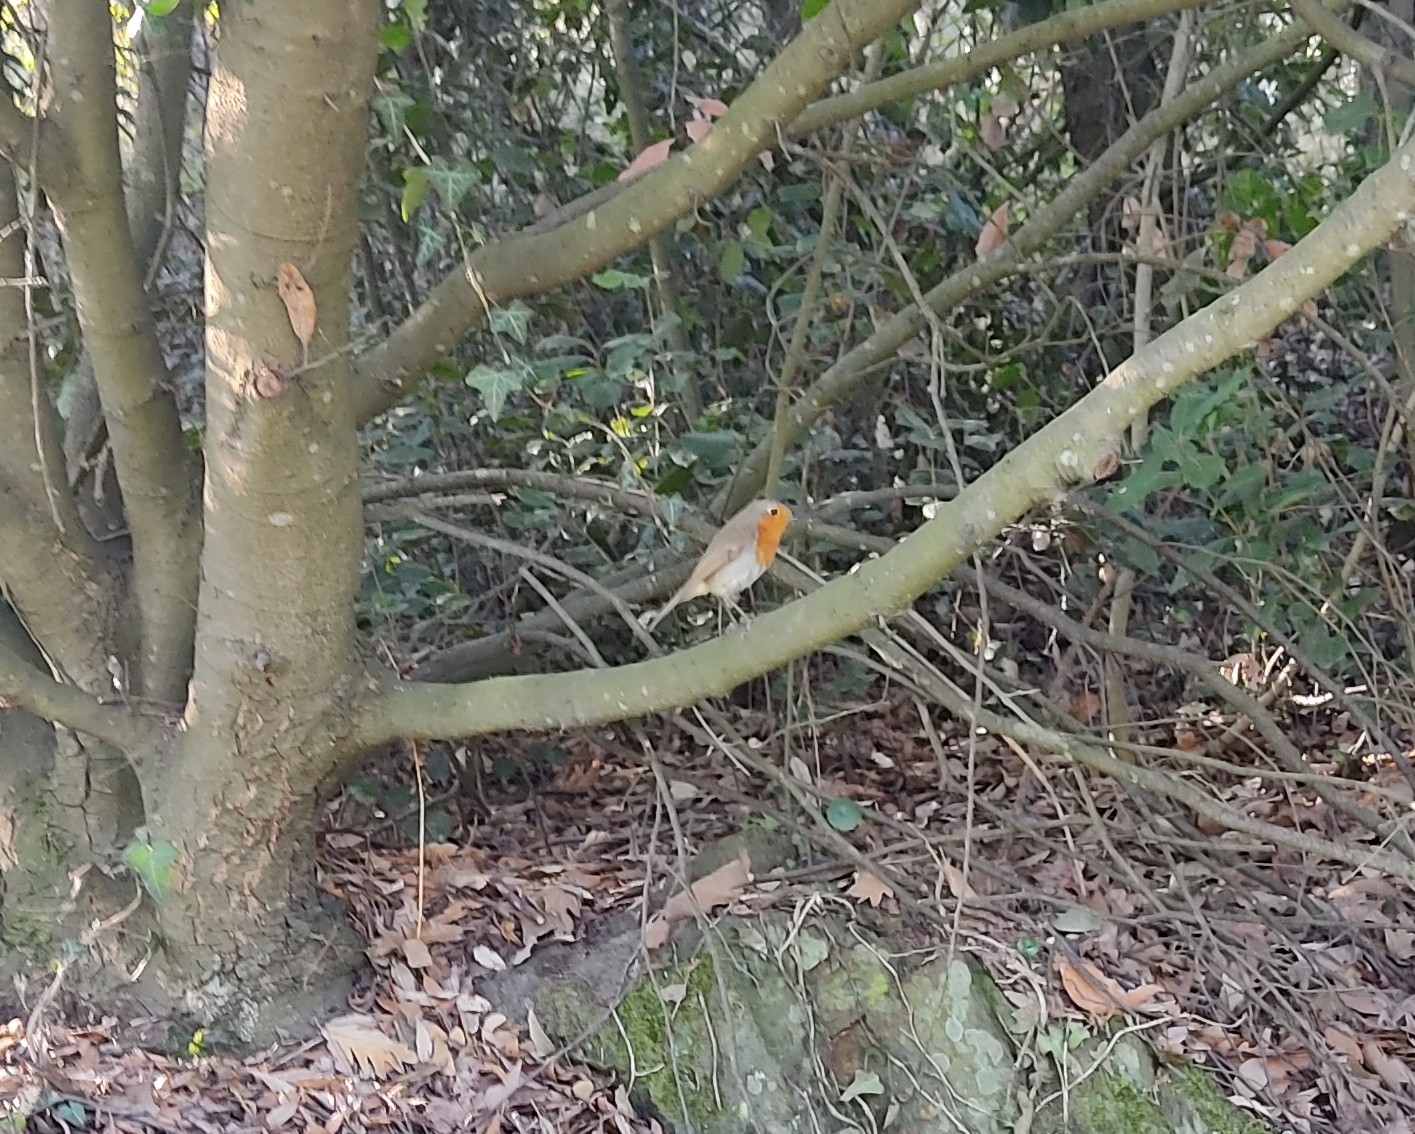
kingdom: Animalia
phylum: Chordata
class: Aves
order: Passeriformes
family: Muscicapidae
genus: Erithacus
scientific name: Erithacus rubecula
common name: European robin
